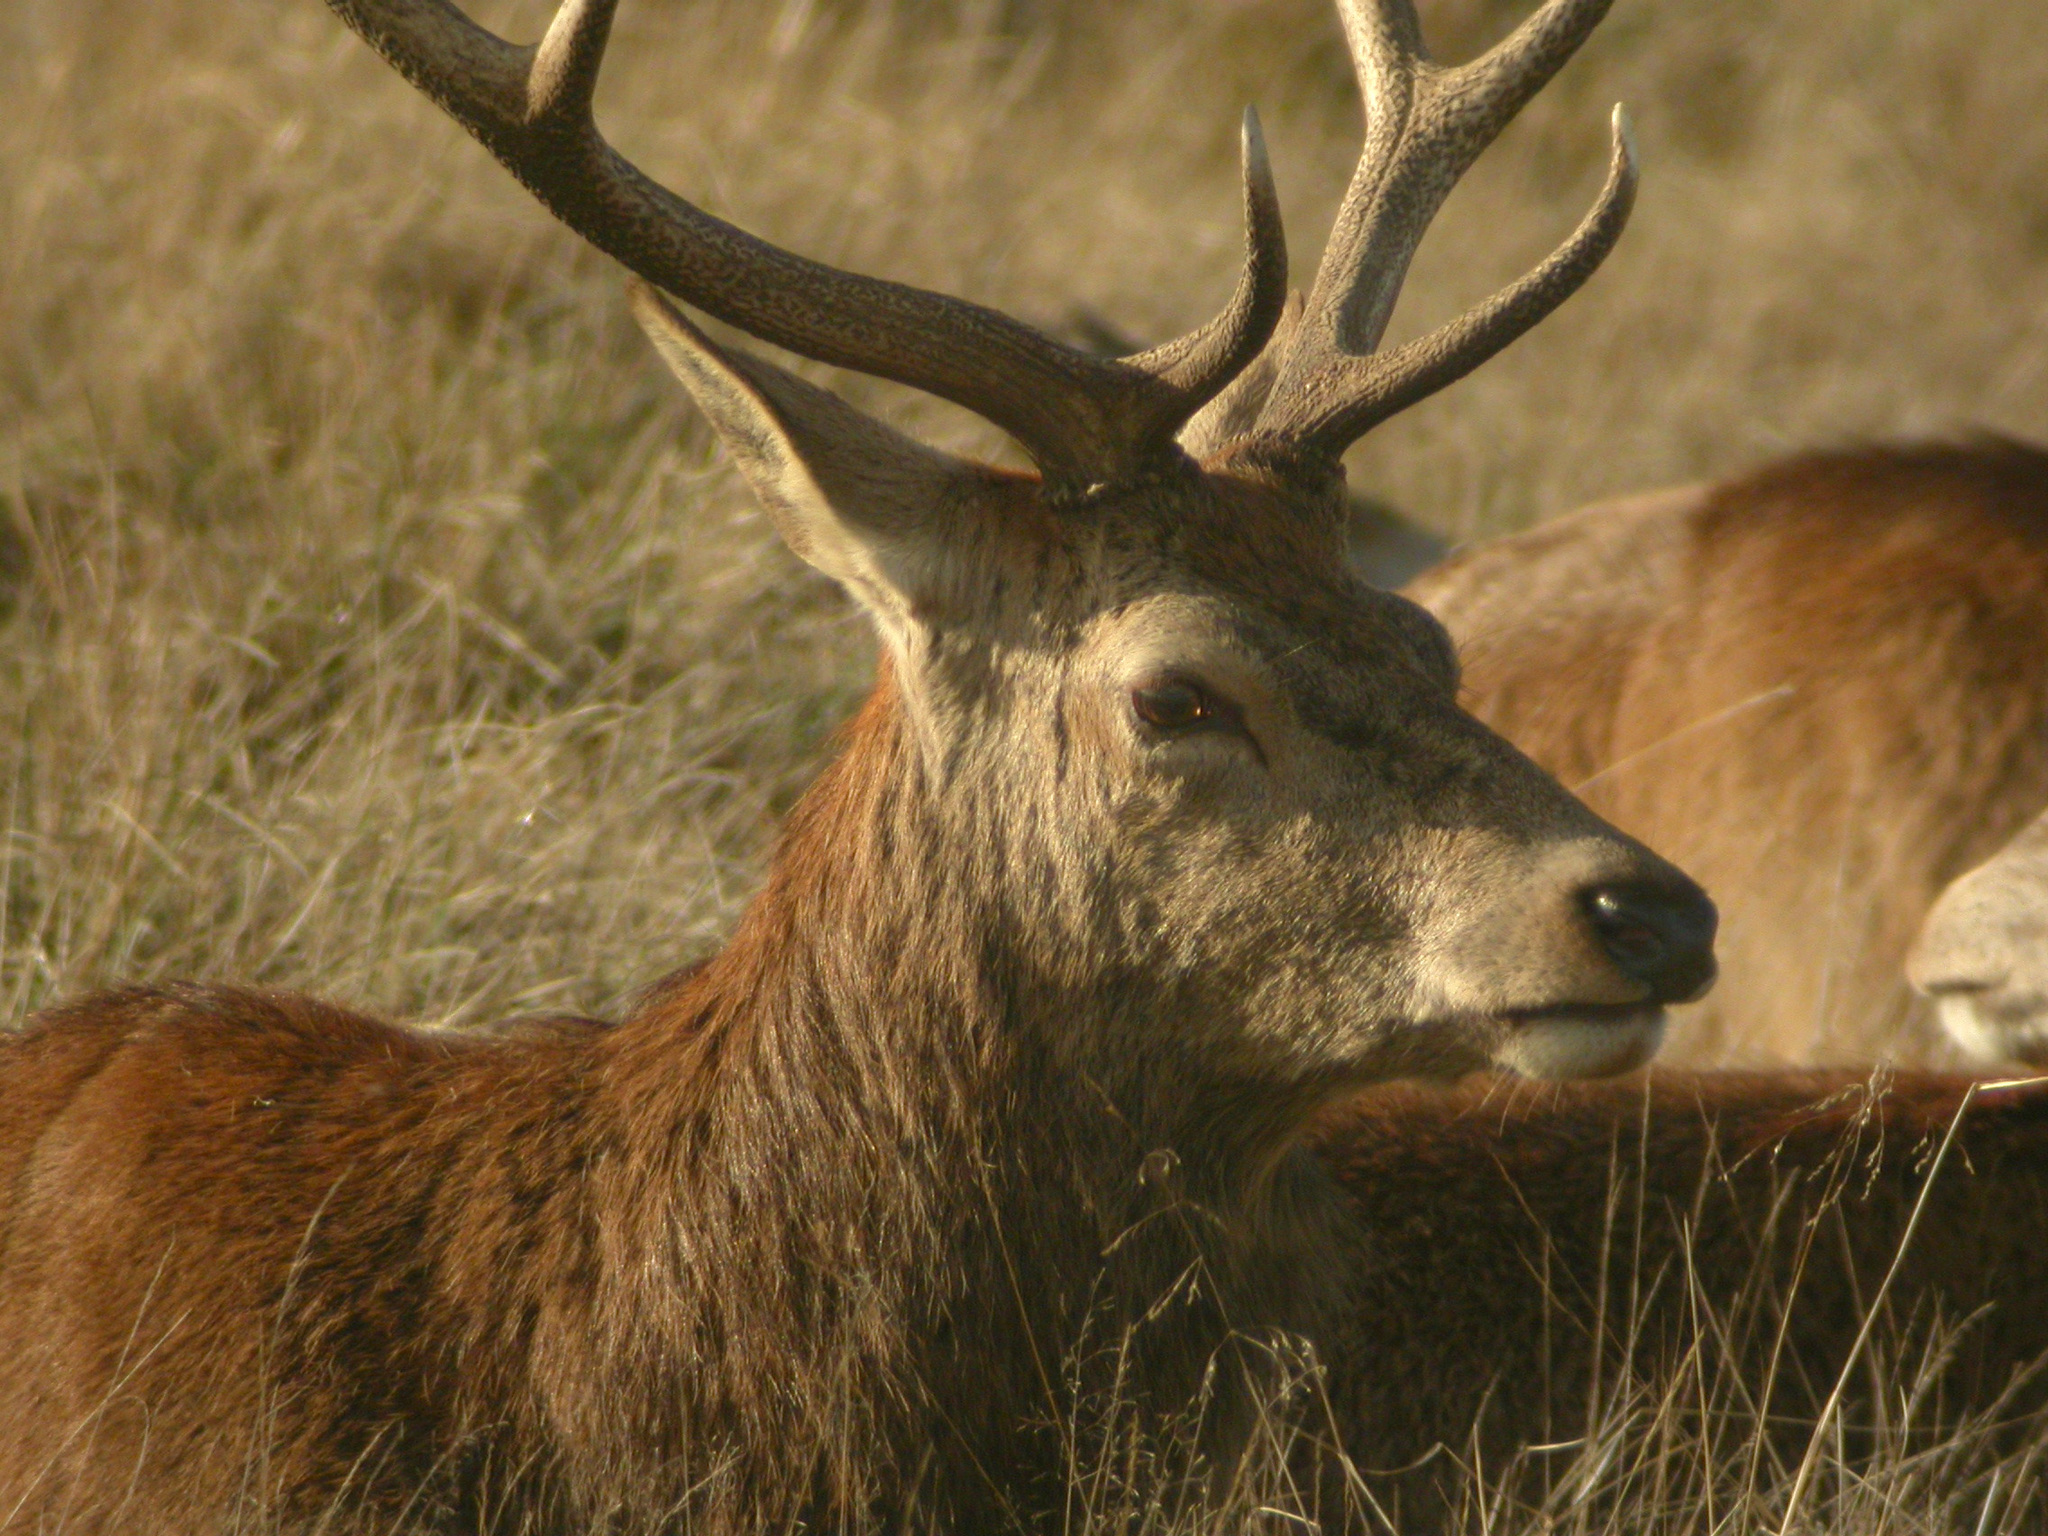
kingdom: Animalia
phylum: Chordata
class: Mammalia
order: Artiodactyla
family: Cervidae
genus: Cervus
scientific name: Cervus elaphus
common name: Red deer
